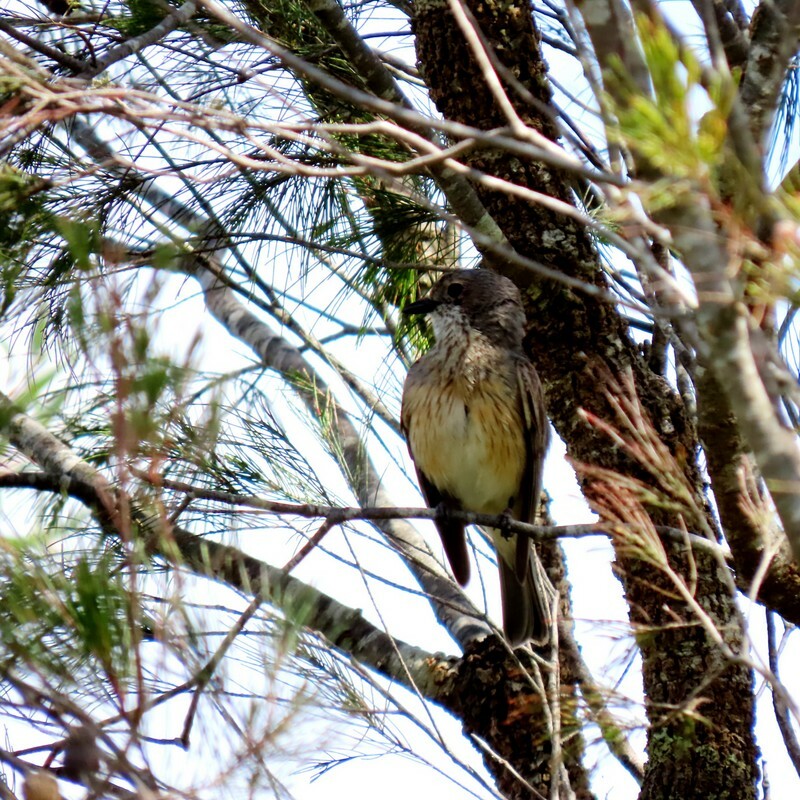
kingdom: Animalia
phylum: Chordata
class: Aves
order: Passeriformes
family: Pachycephalidae
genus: Pachycephala
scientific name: Pachycephala rufiventris
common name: Rufous whistler
